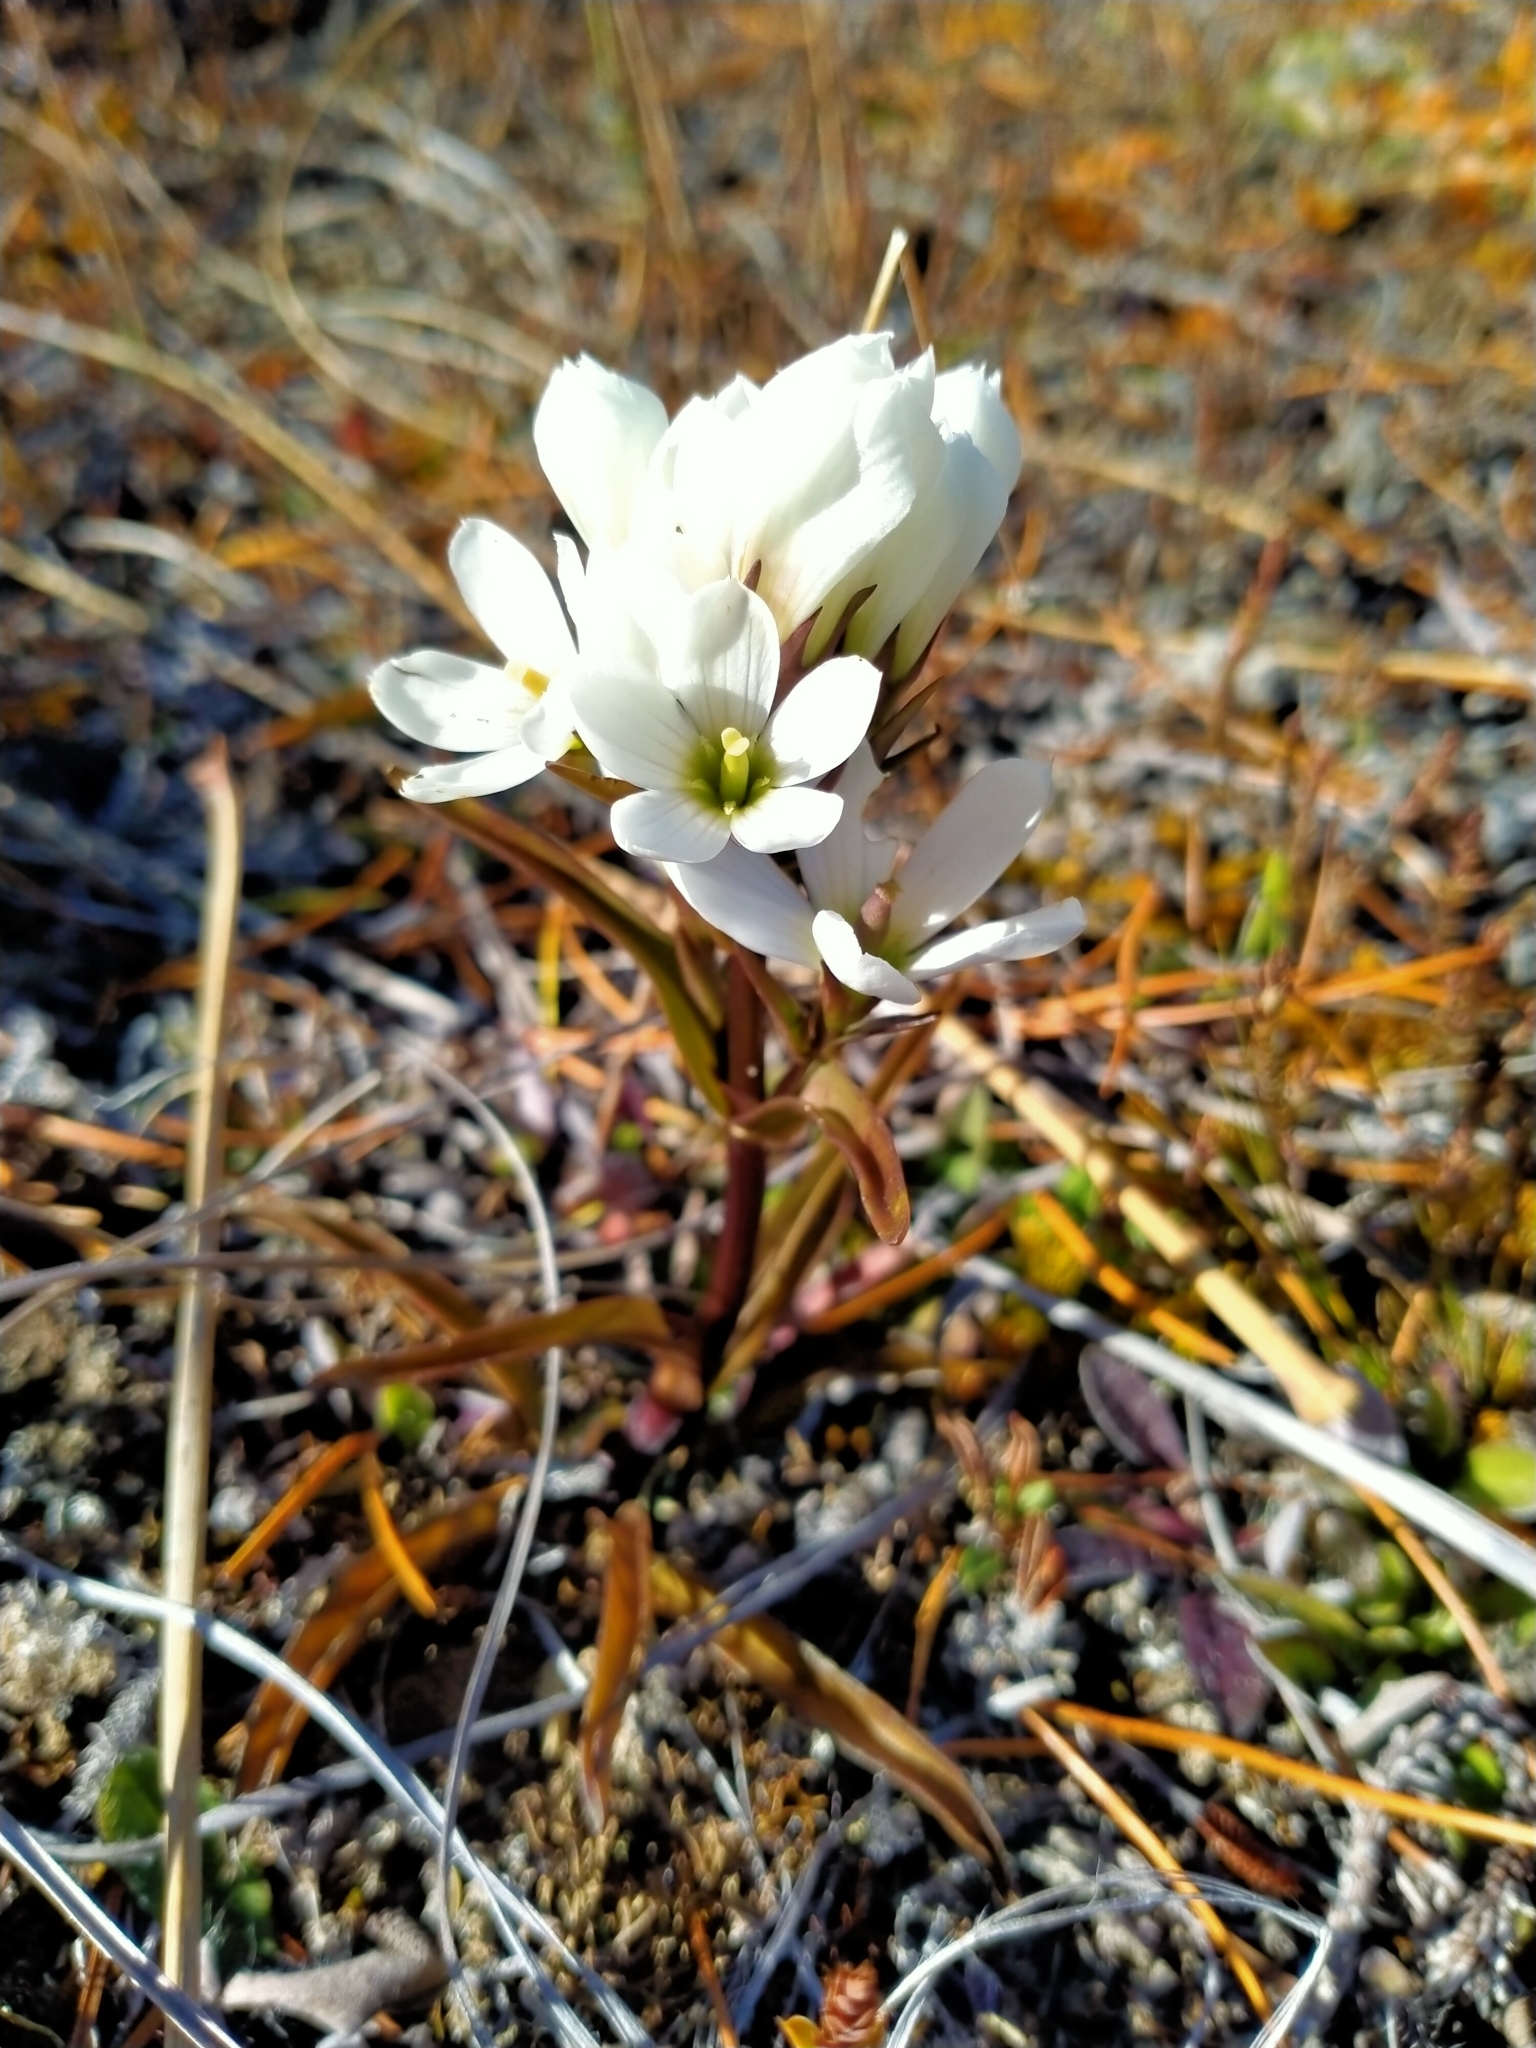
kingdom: Plantae
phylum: Tracheophyta
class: Magnoliopsida
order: Gentianales
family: Gentianaceae
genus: Gentianella
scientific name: Gentianella corymbifera
